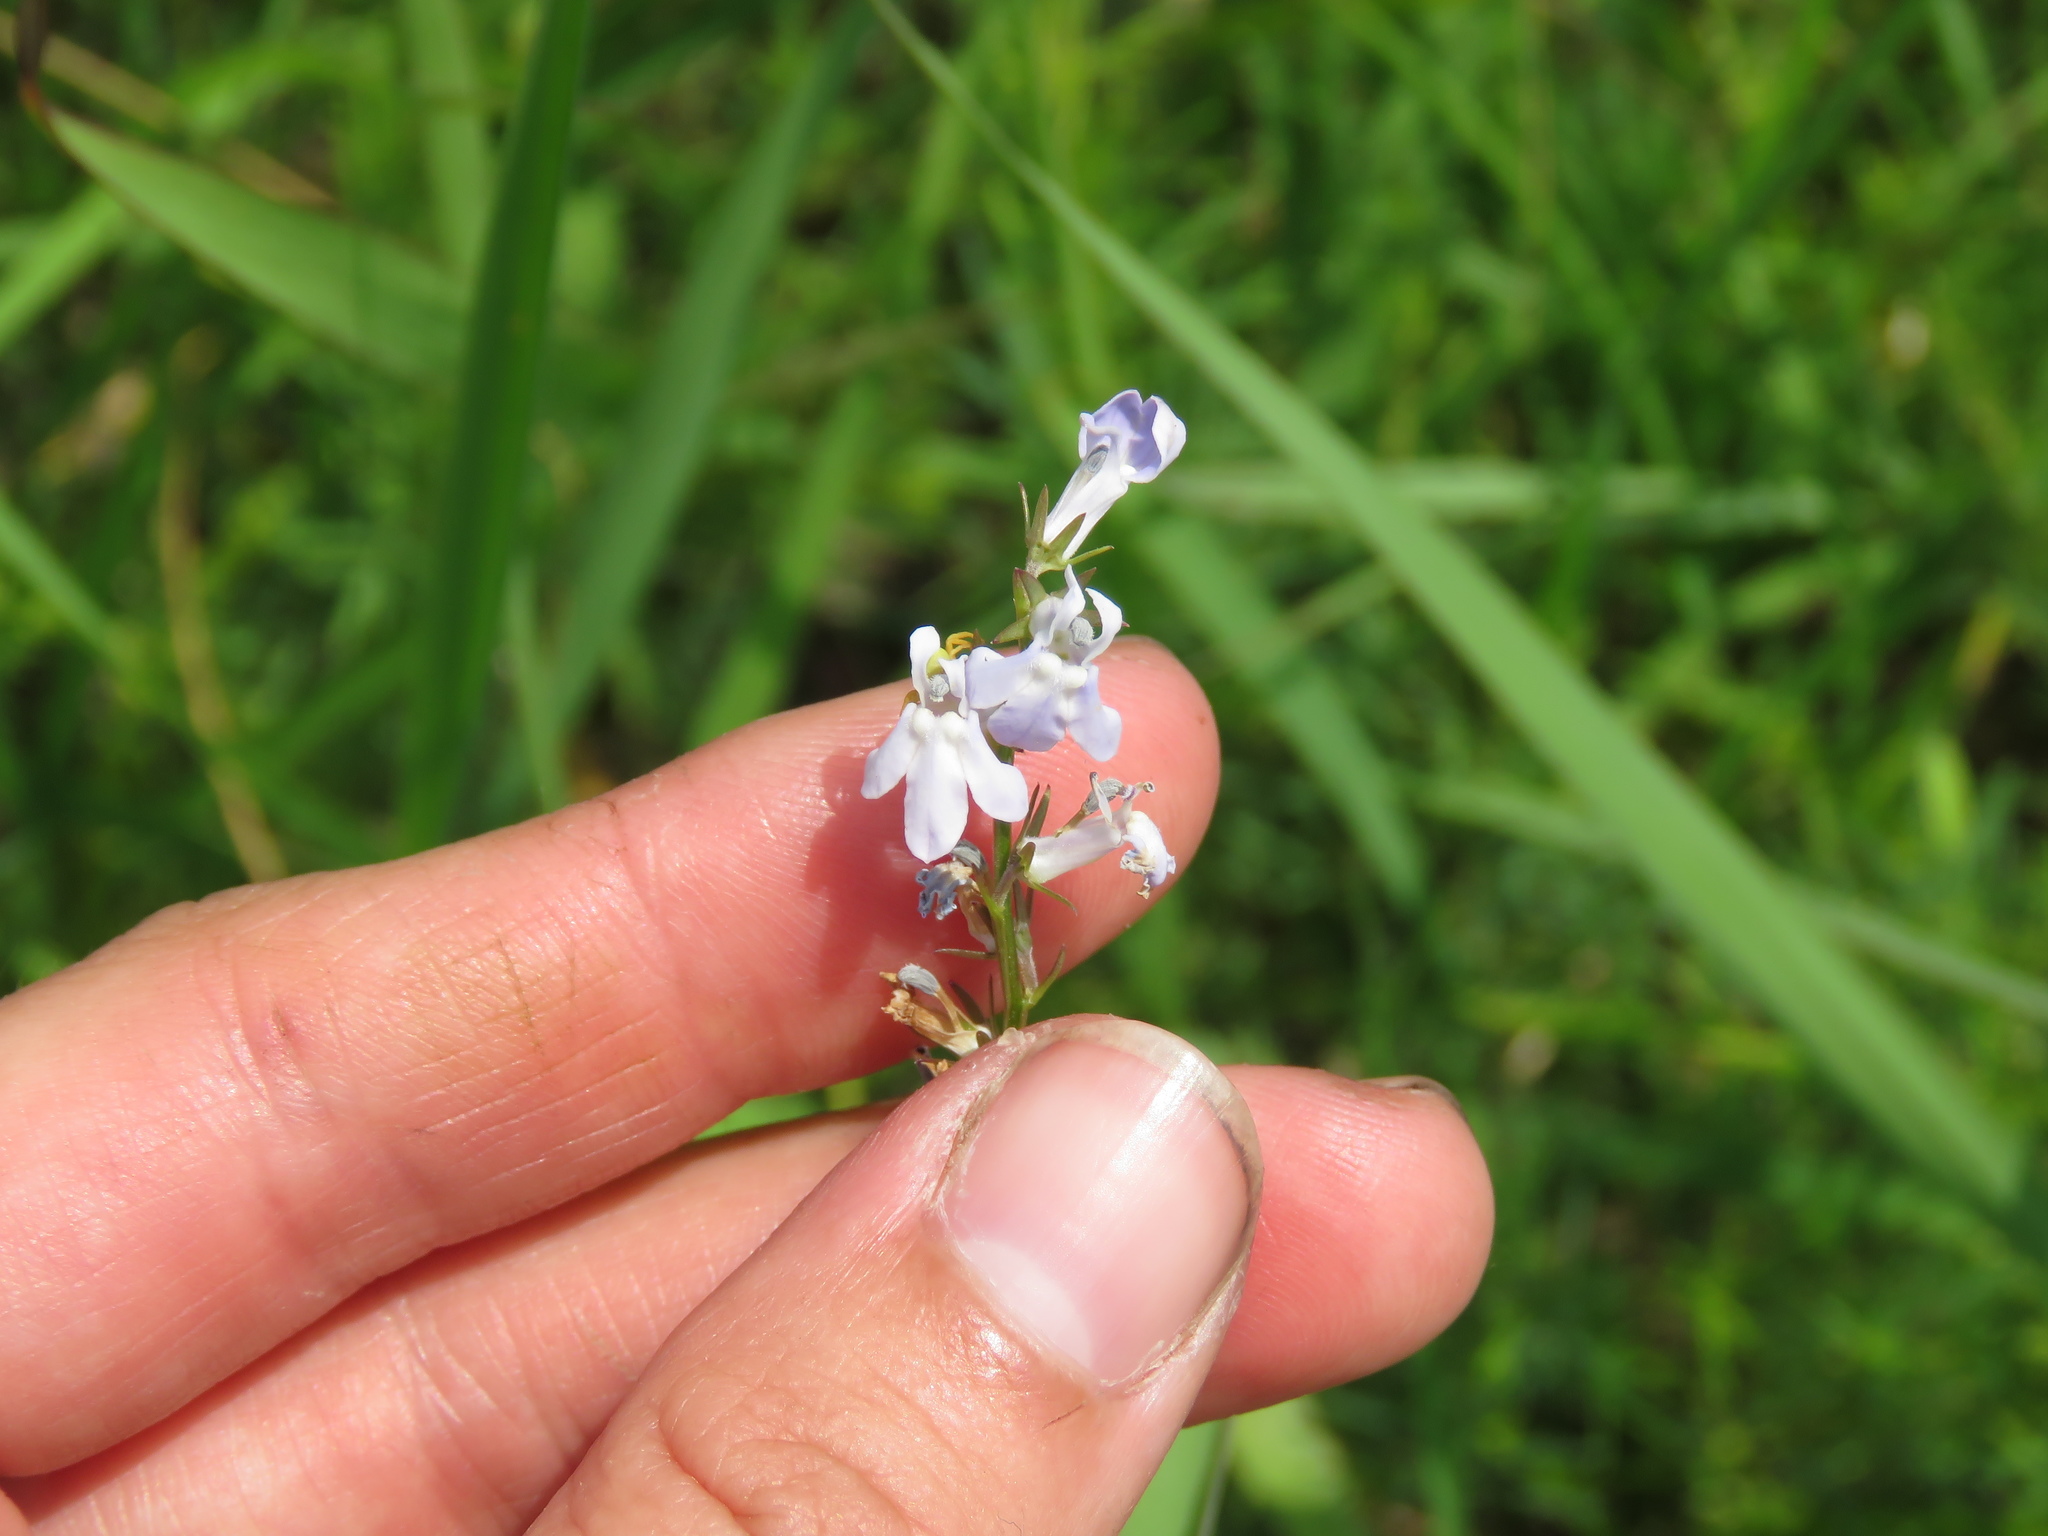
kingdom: Plantae
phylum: Tracheophyta
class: Magnoliopsida
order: Asterales
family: Campanulaceae
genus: Lobelia
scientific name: Lobelia spicata
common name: Pale-spike lobelia
